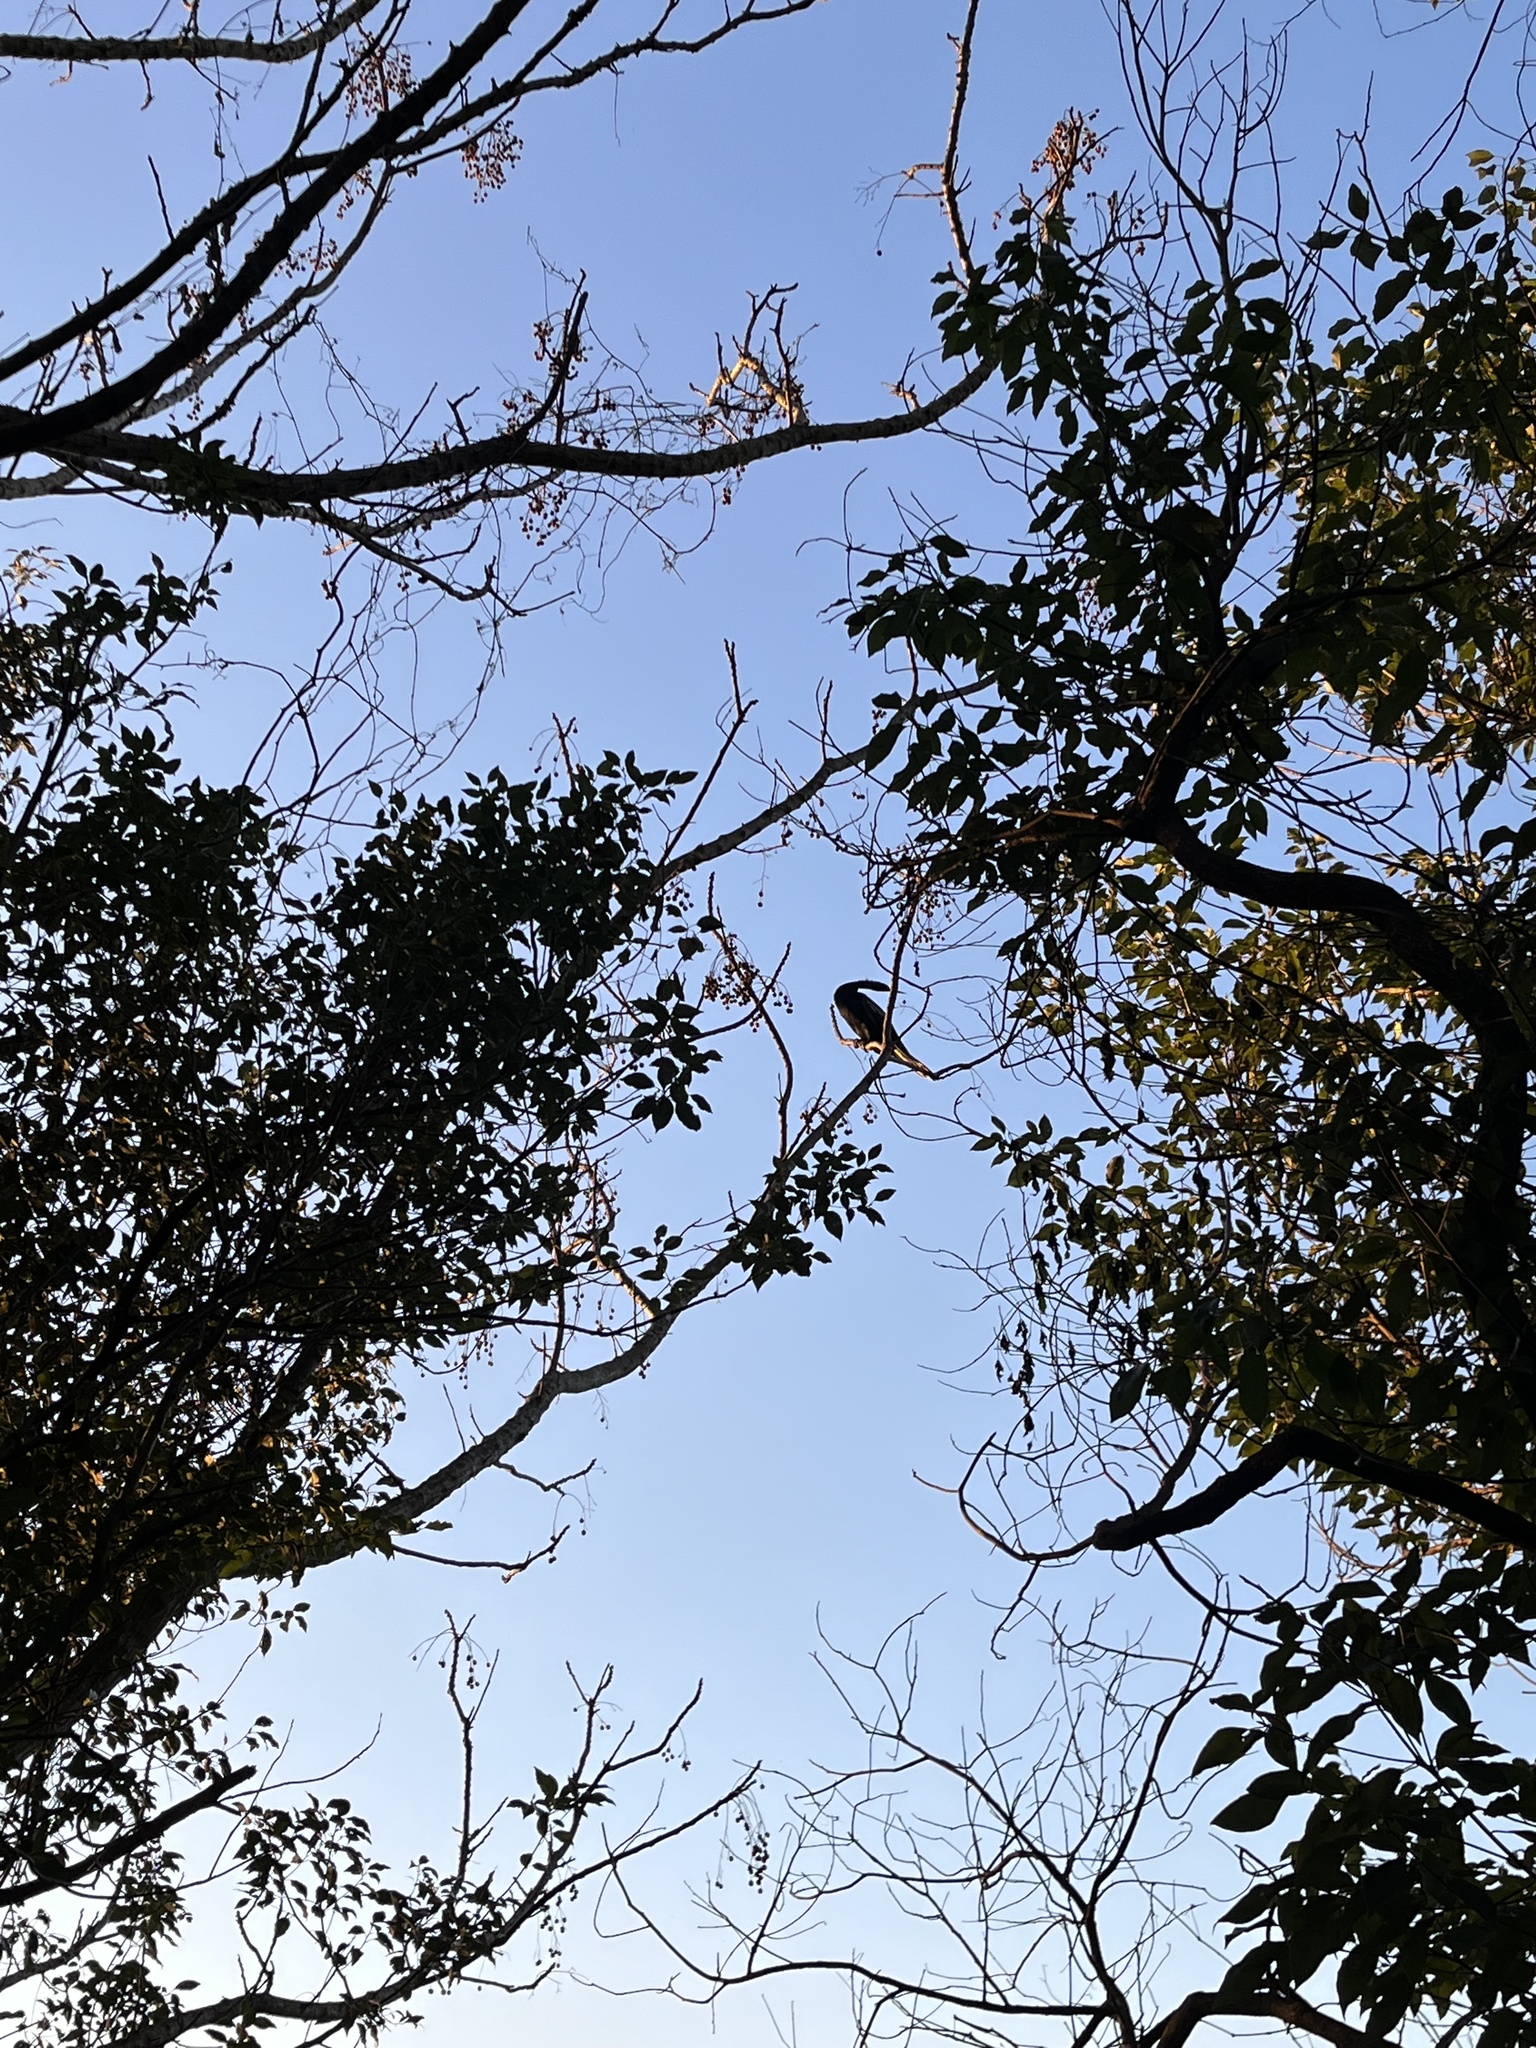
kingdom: Animalia
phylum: Chordata
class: Aves
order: Suliformes
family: Anhingidae
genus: Anhinga
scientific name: Anhinga anhinga
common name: Anhinga
